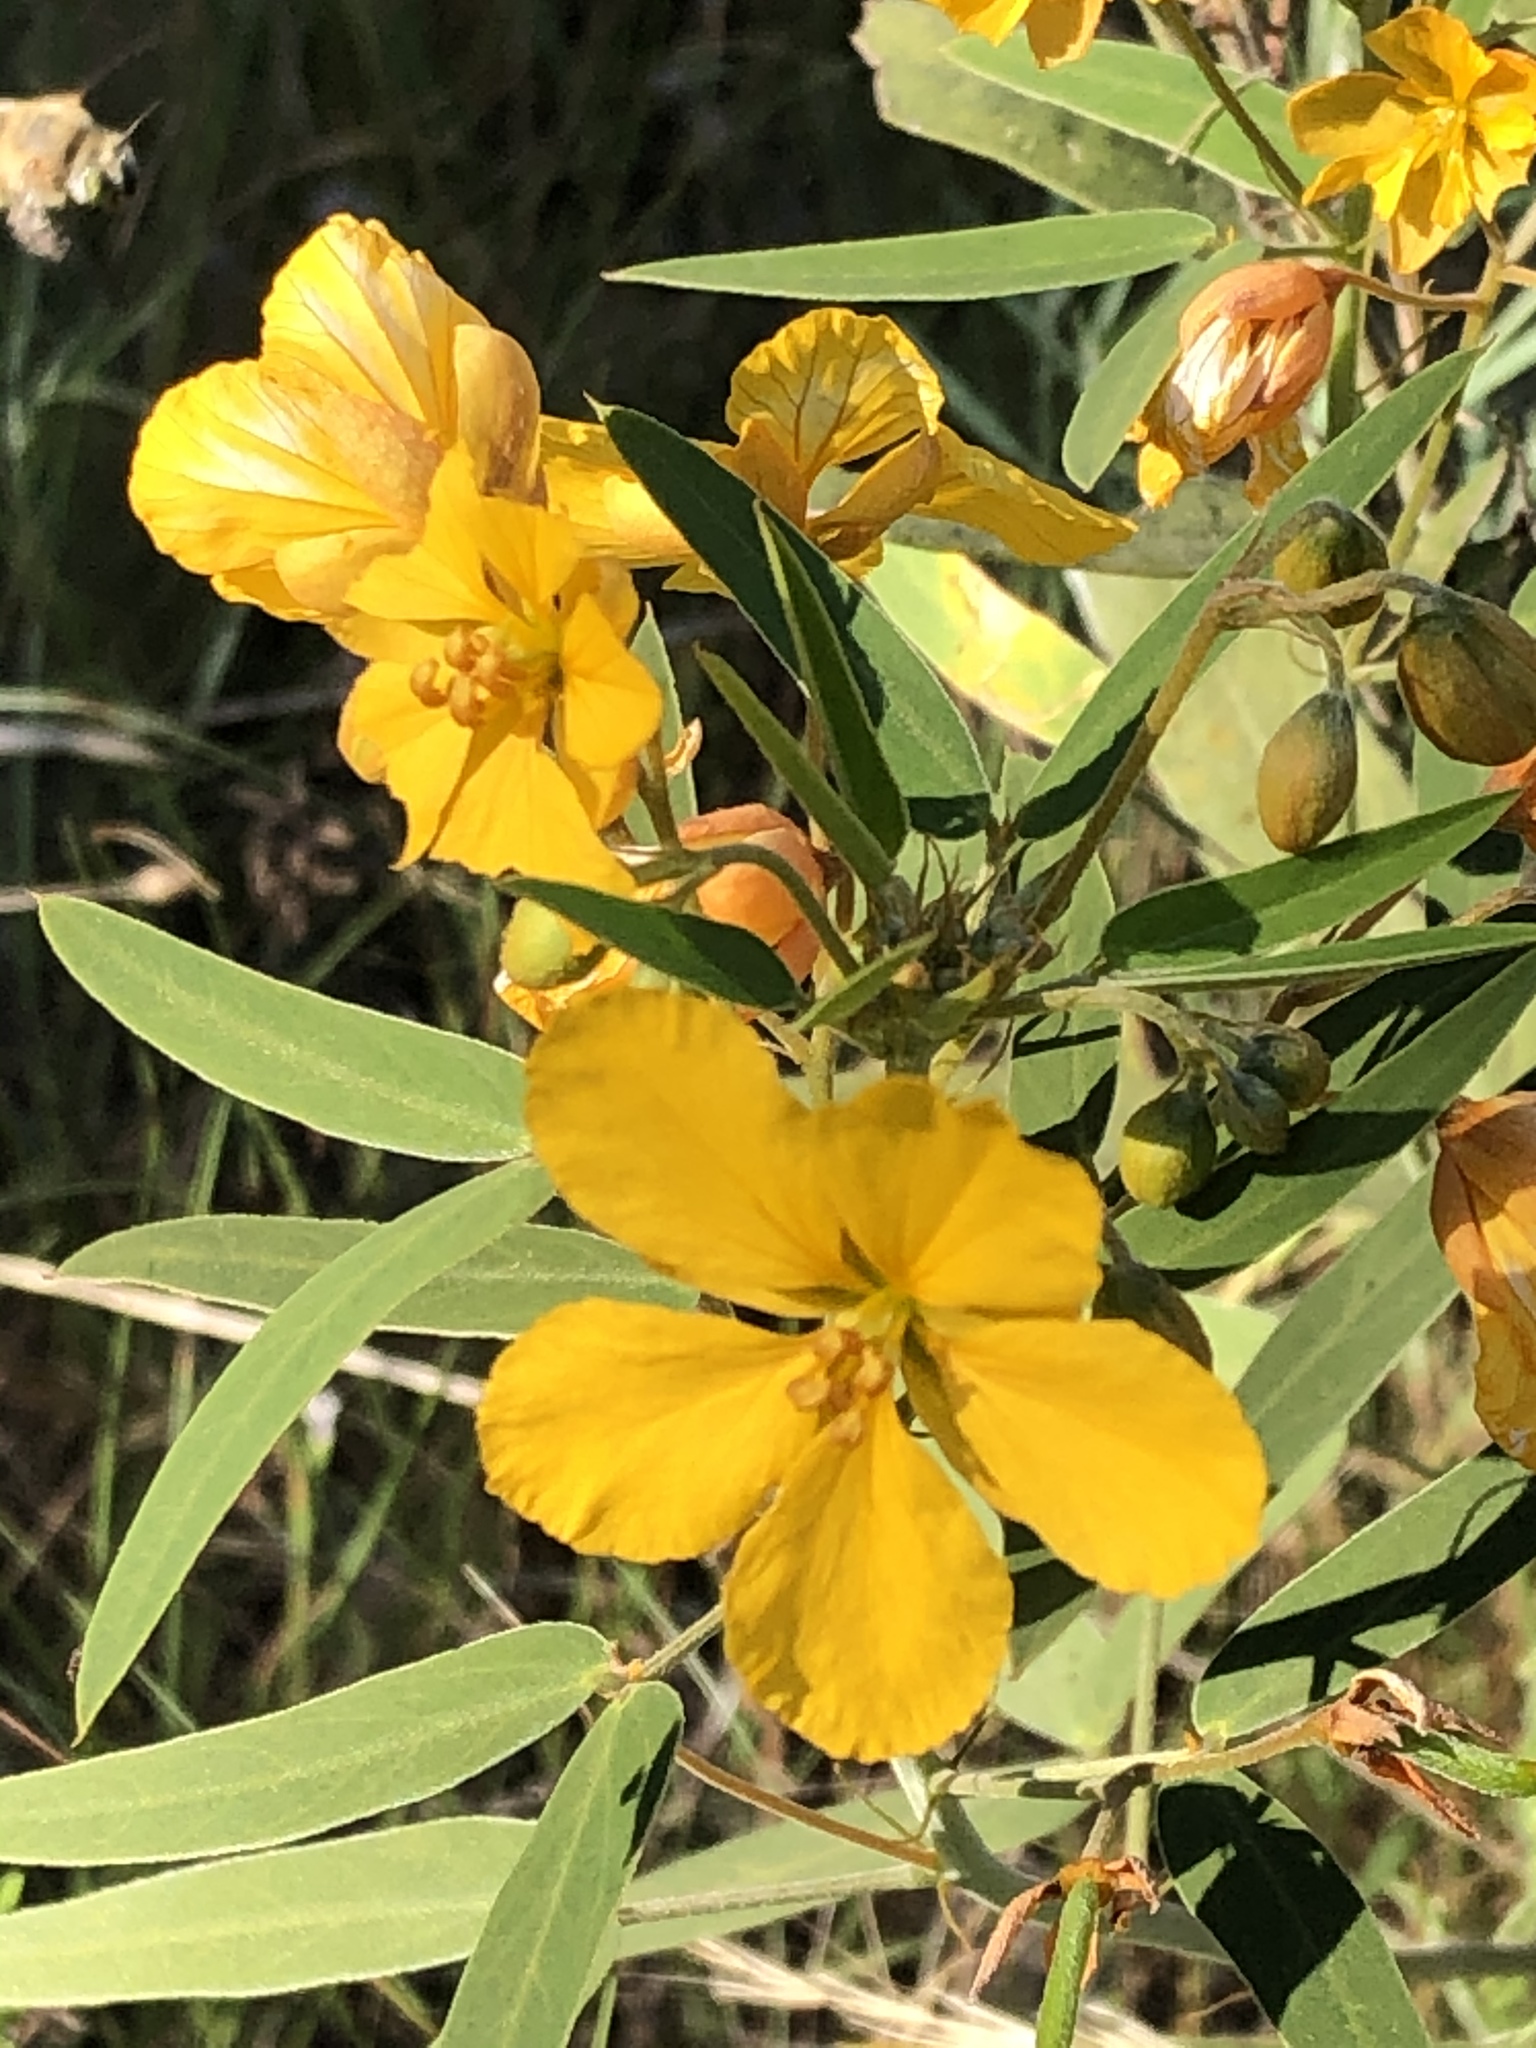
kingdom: Plantae
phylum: Tracheophyta
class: Magnoliopsida
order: Fabales
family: Fabaceae
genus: Senna
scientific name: Senna roemeriana
